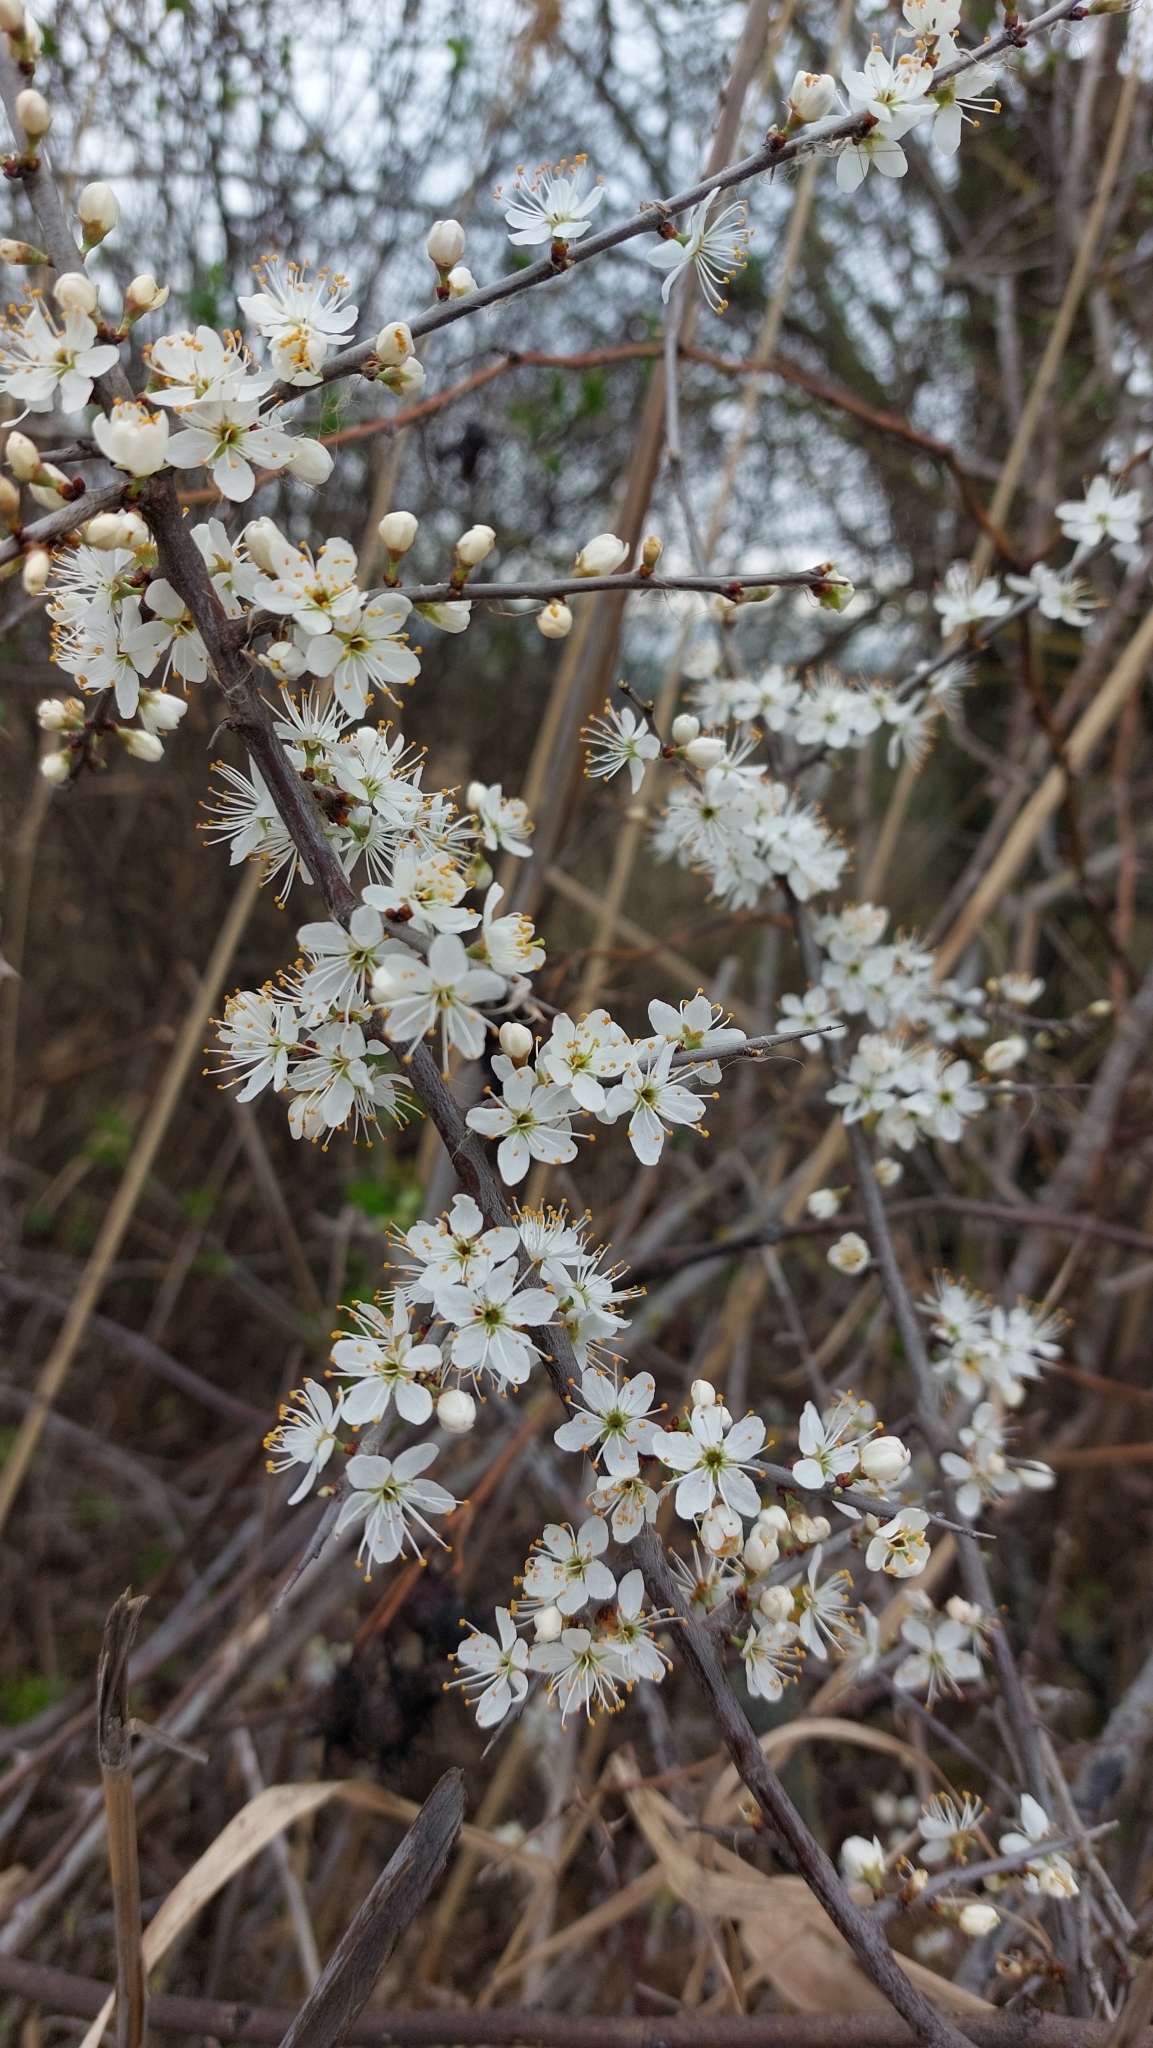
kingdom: Plantae
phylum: Tracheophyta
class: Magnoliopsida
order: Rosales
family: Rosaceae
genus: Prunus
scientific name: Prunus spinosa
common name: Blackthorn
